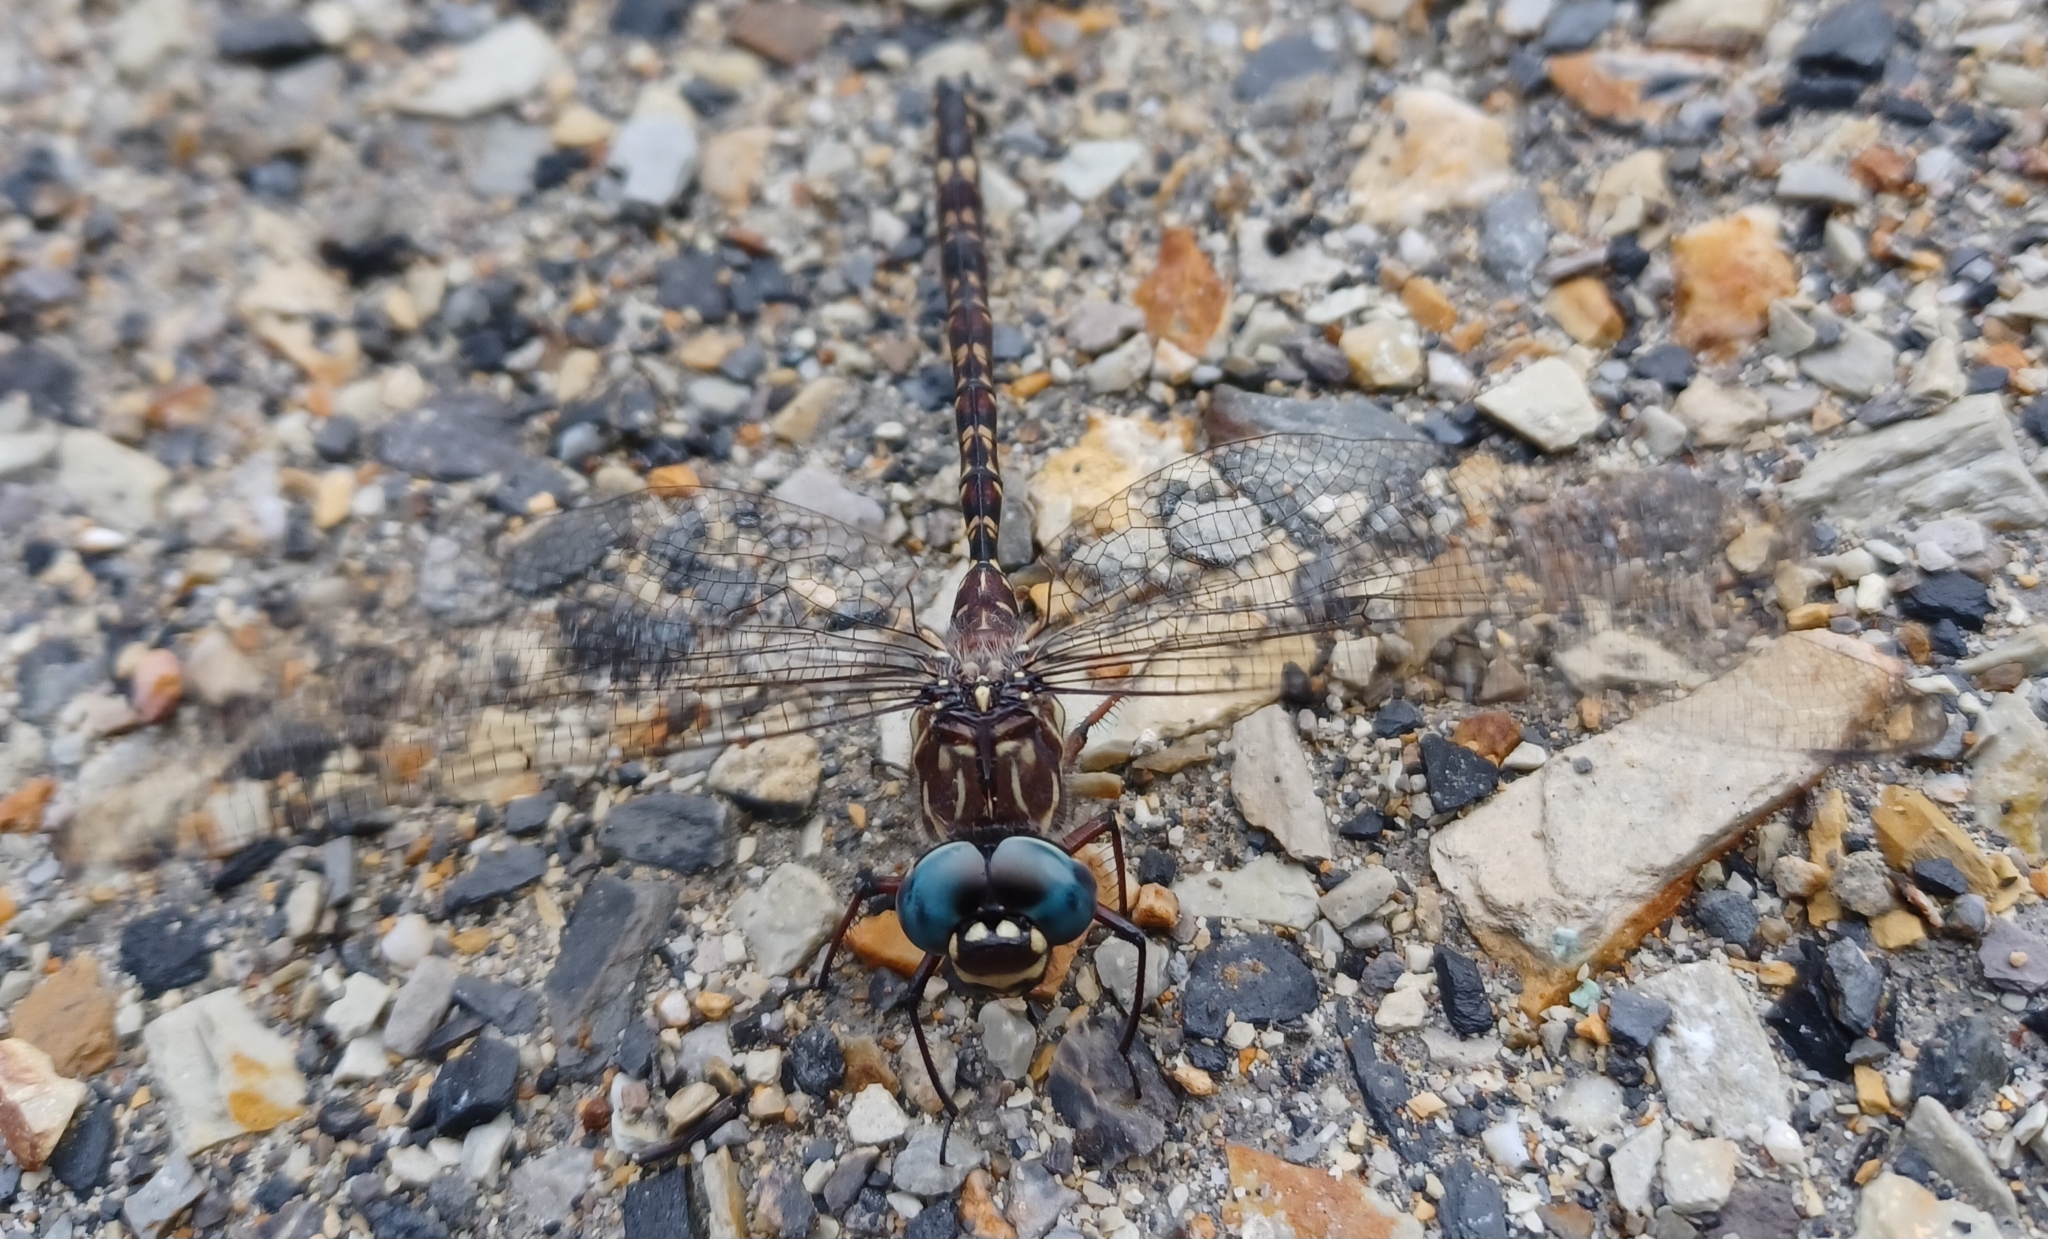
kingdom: Animalia
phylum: Arthropoda
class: Insecta
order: Odonata
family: Aeshnidae
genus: Austroaeschna
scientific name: Austroaeschna multipunctata
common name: Multi-spotted darner
